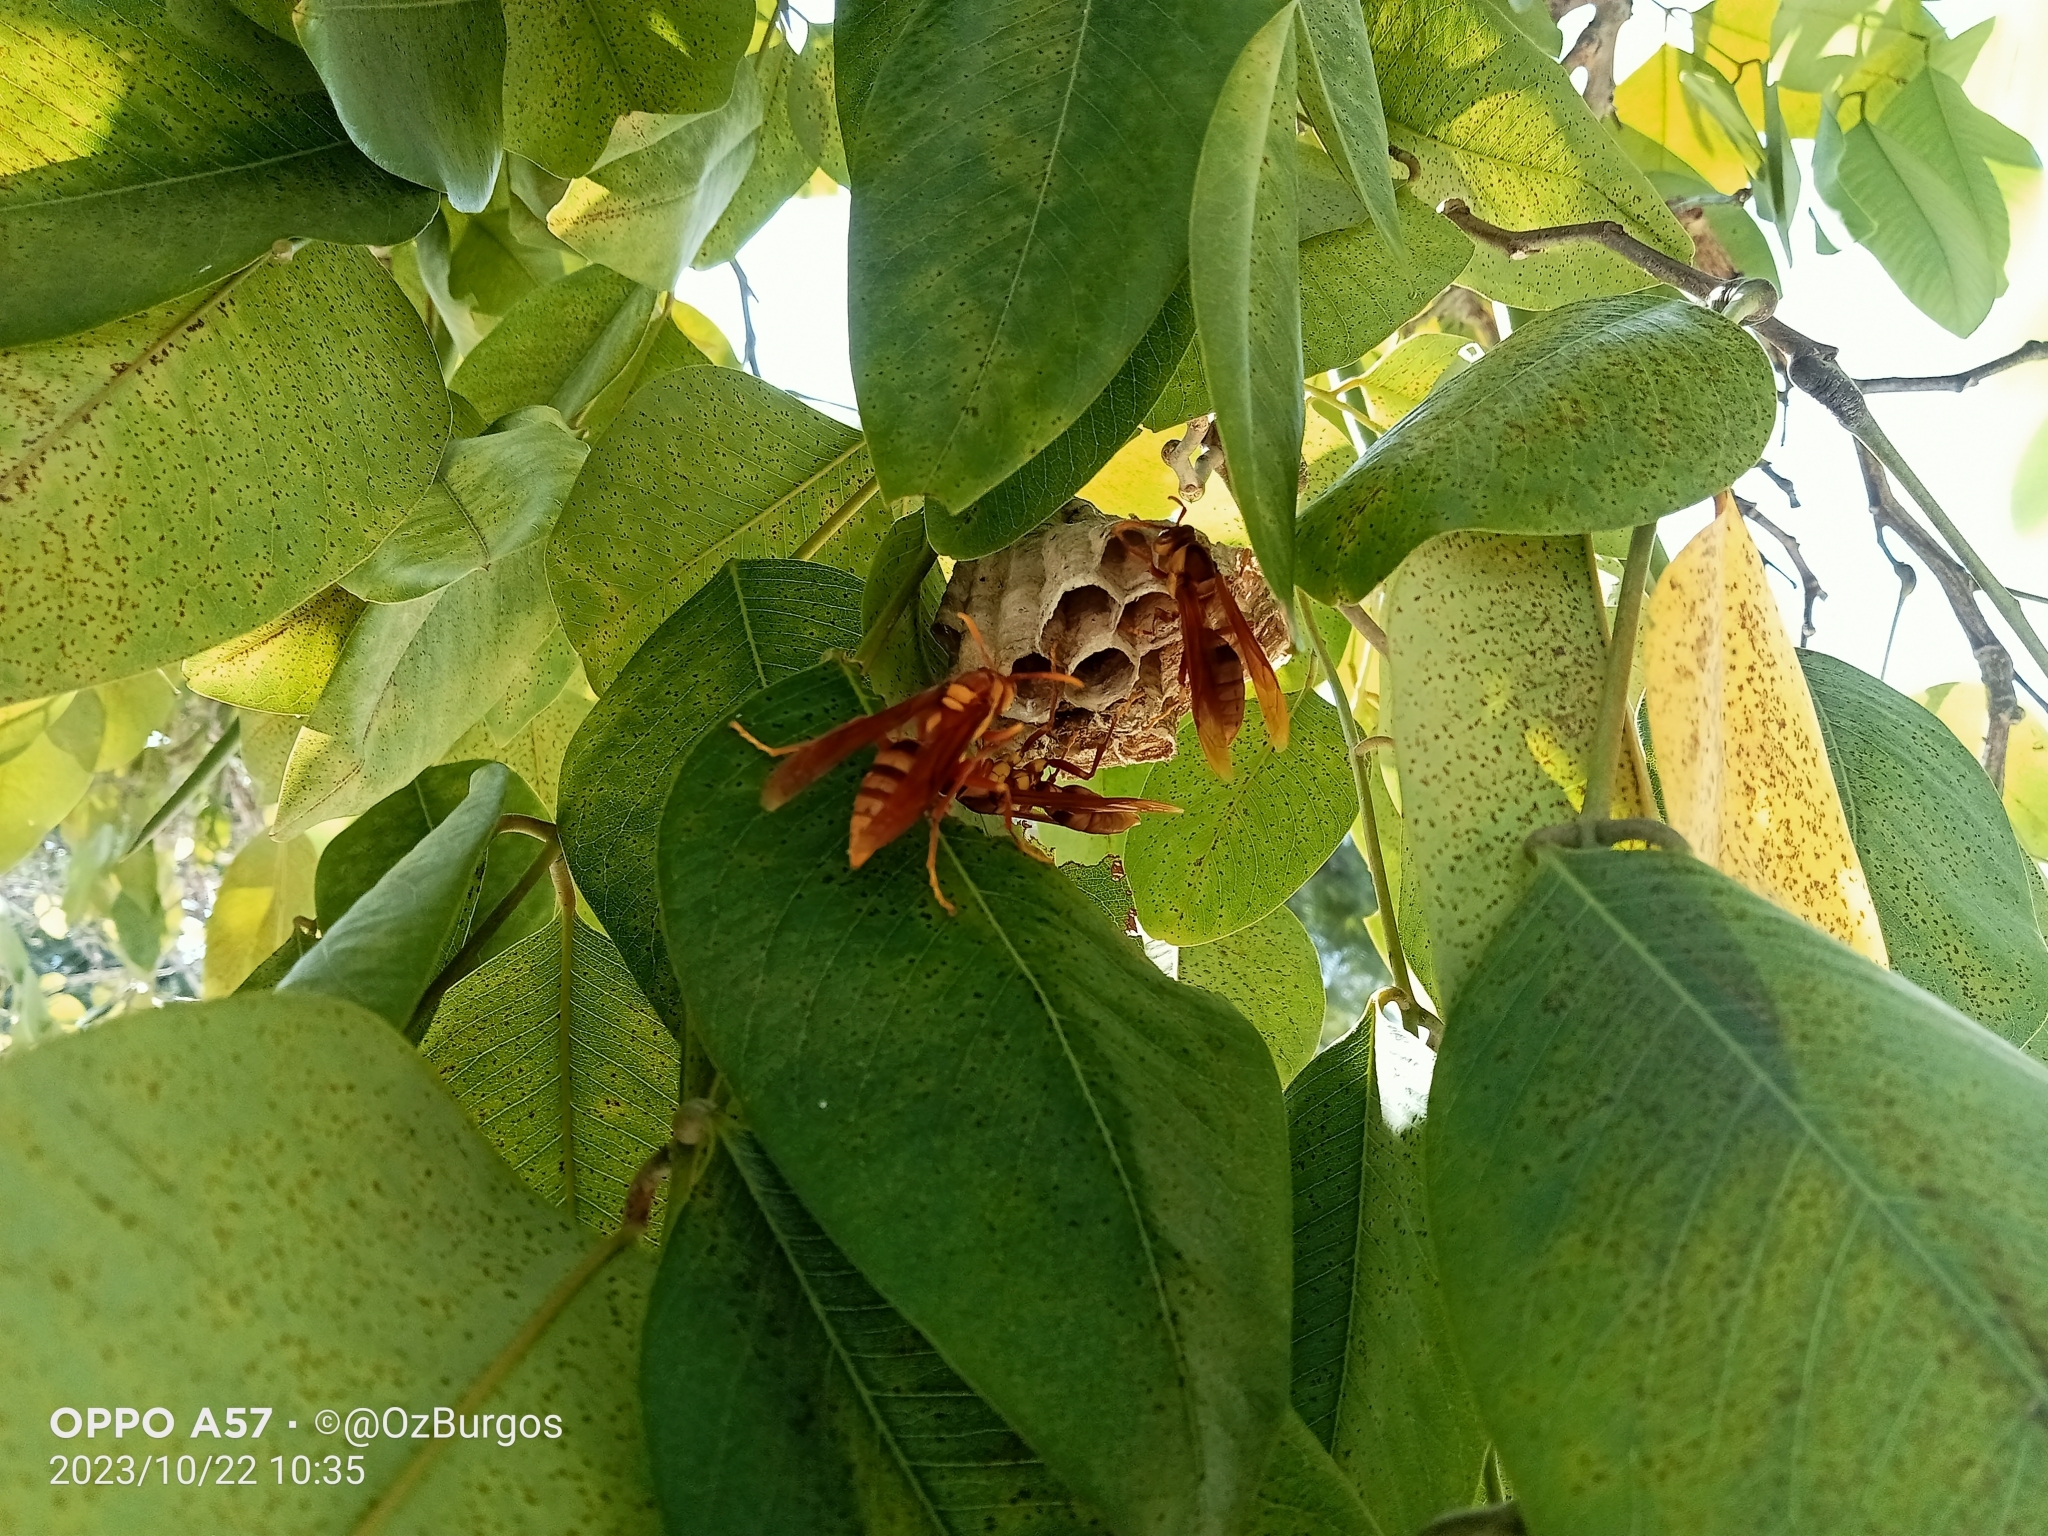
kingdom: Animalia
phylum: Arthropoda
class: Insecta
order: Hymenoptera
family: Eumenidae
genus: Polistes
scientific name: Polistes carnifex
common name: Paper wasp
